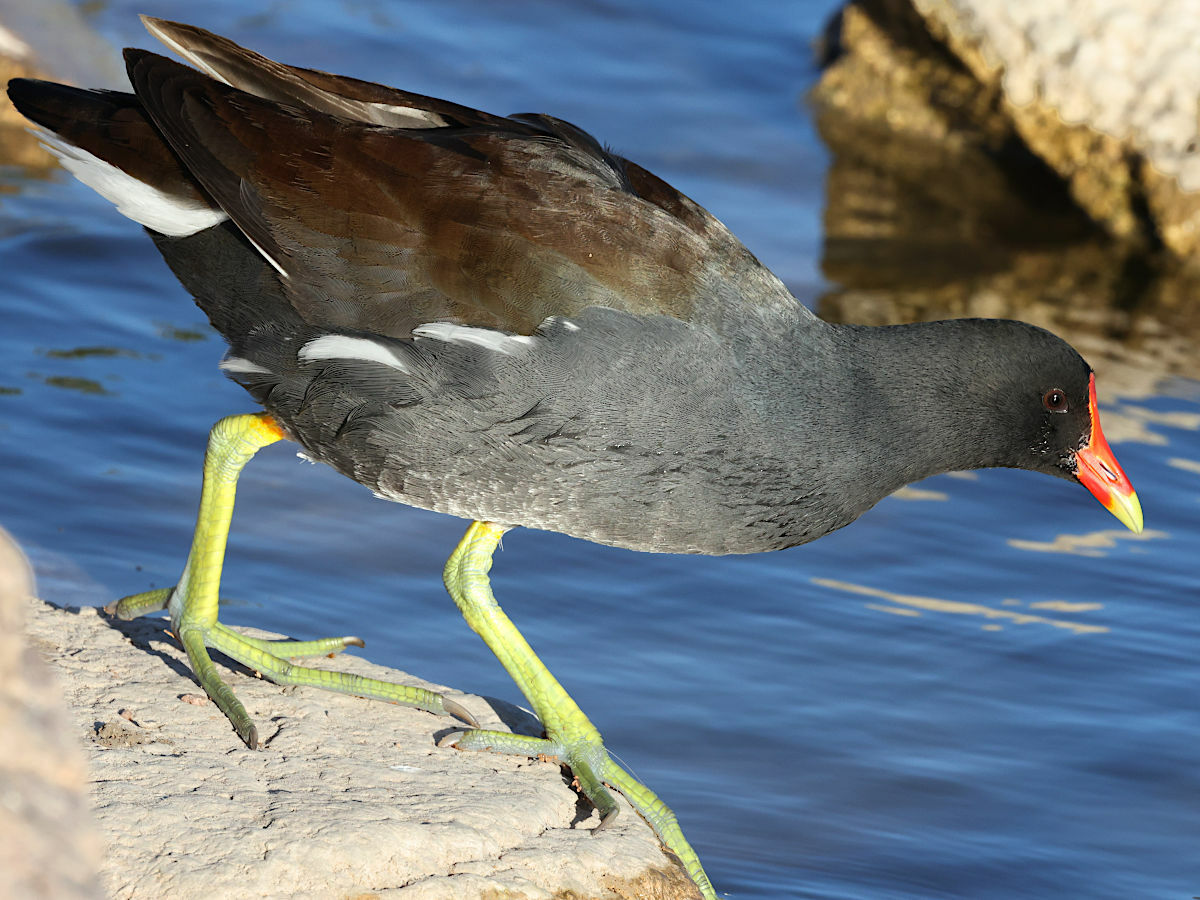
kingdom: Animalia
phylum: Chordata
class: Aves
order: Gruiformes
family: Rallidae
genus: Gallinula
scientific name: Gallinula chloropus
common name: Common moorhen
